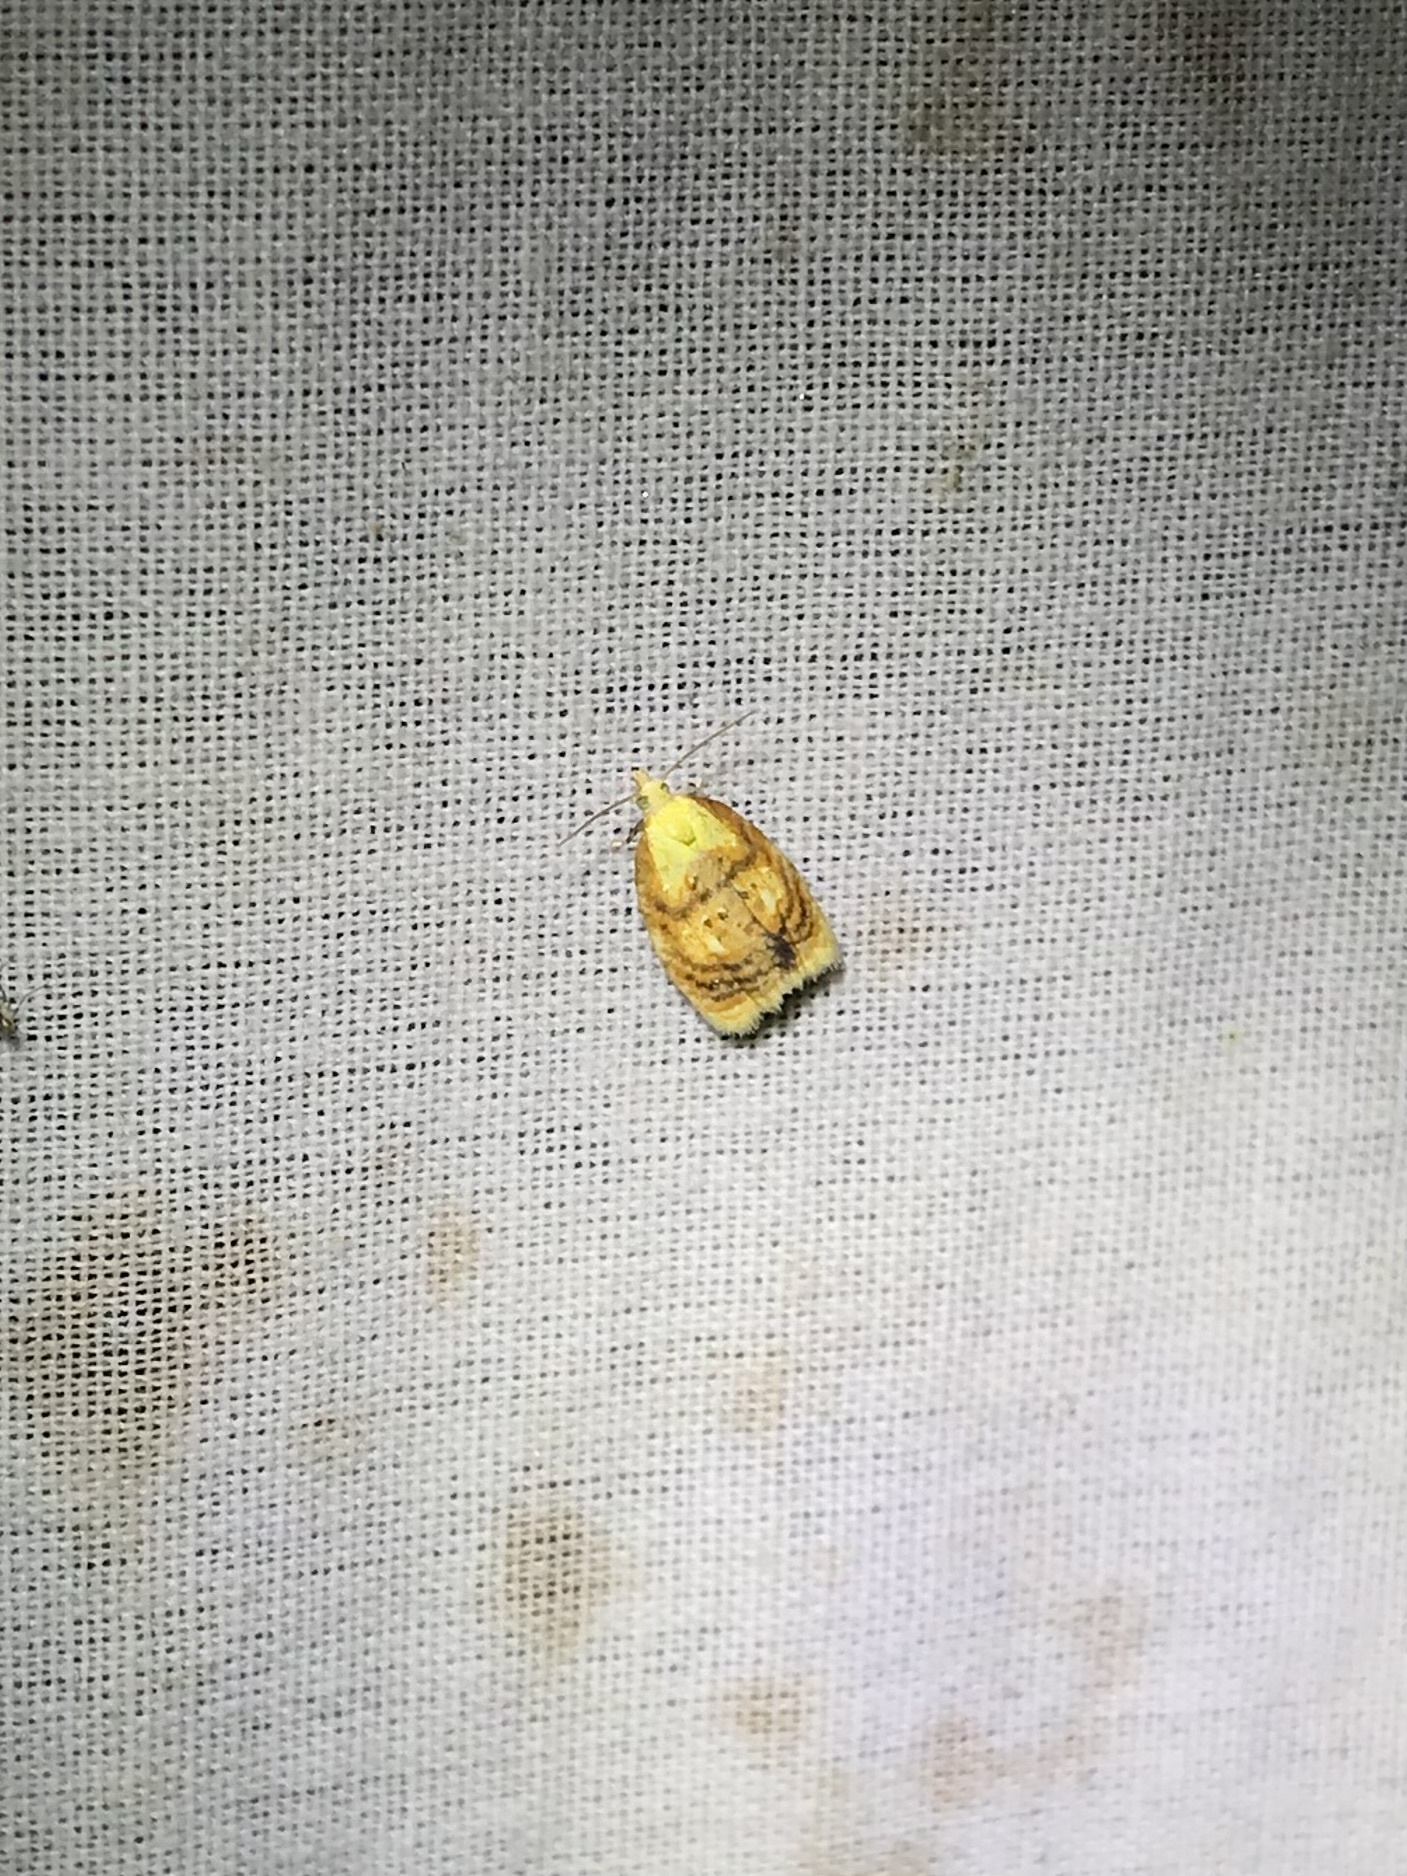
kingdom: Animalia
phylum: Arthropoda
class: Insecta
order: Lepidoptera
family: Tortricidae
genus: Acleris
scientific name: Acleris curvalana
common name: Blueberry leaftier moth
